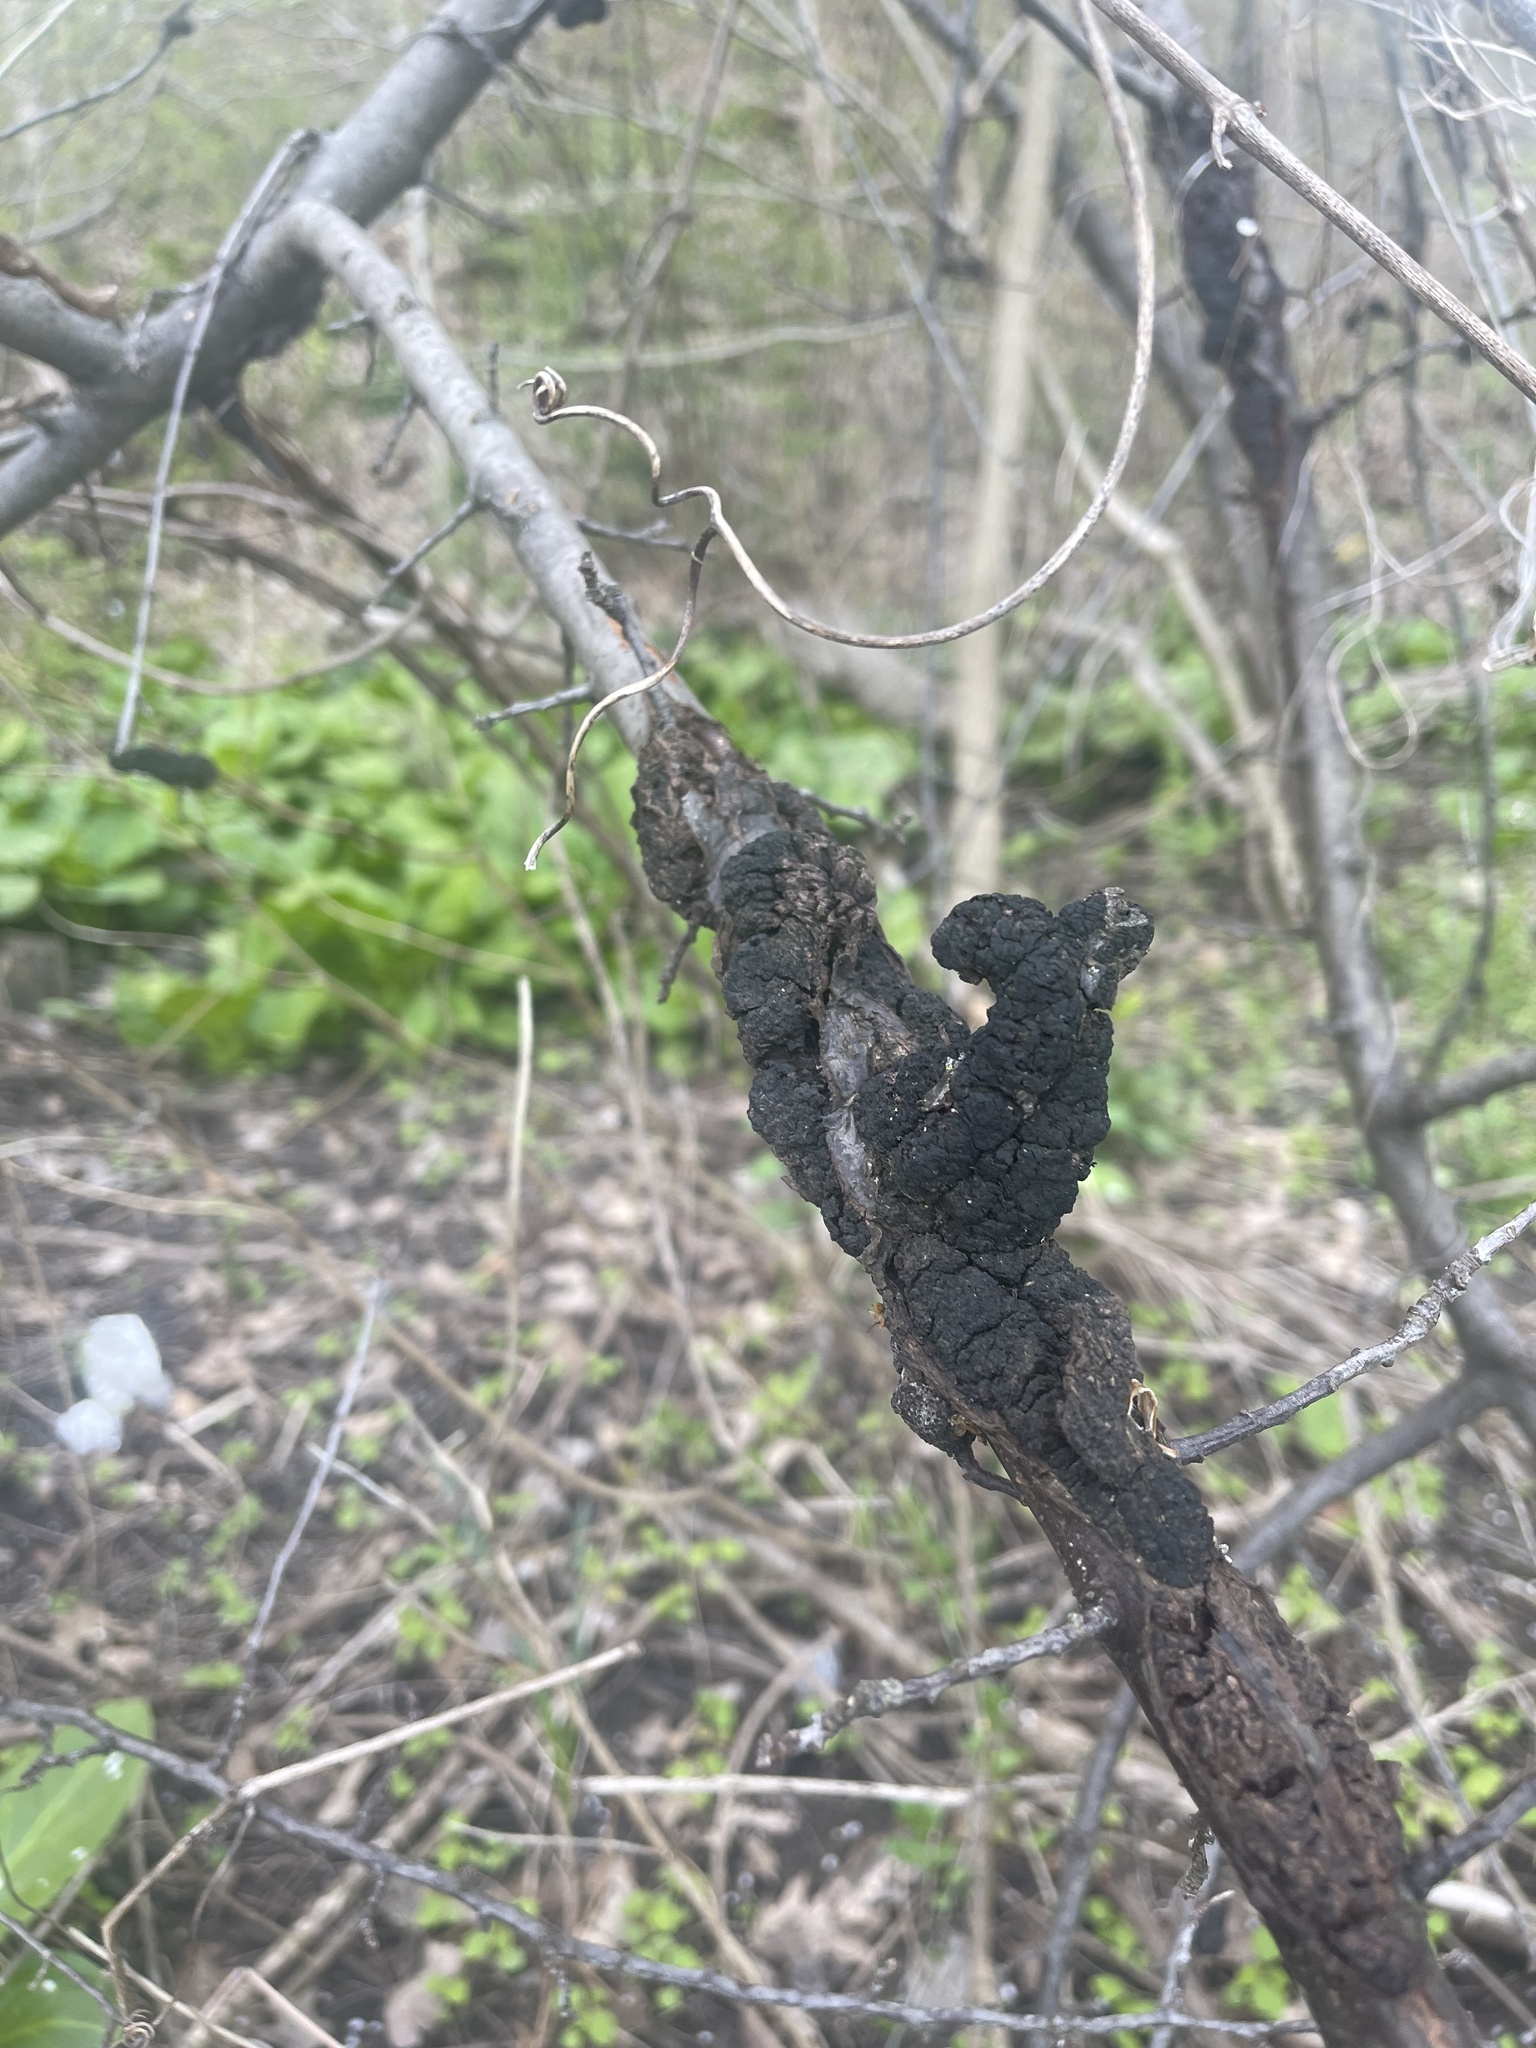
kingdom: Fungi
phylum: Ascomycota
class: Dothideomycetes
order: Venturiales
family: Venturiaceae
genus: Apiosporina
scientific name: Apiosporina morbosa
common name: Black knot
